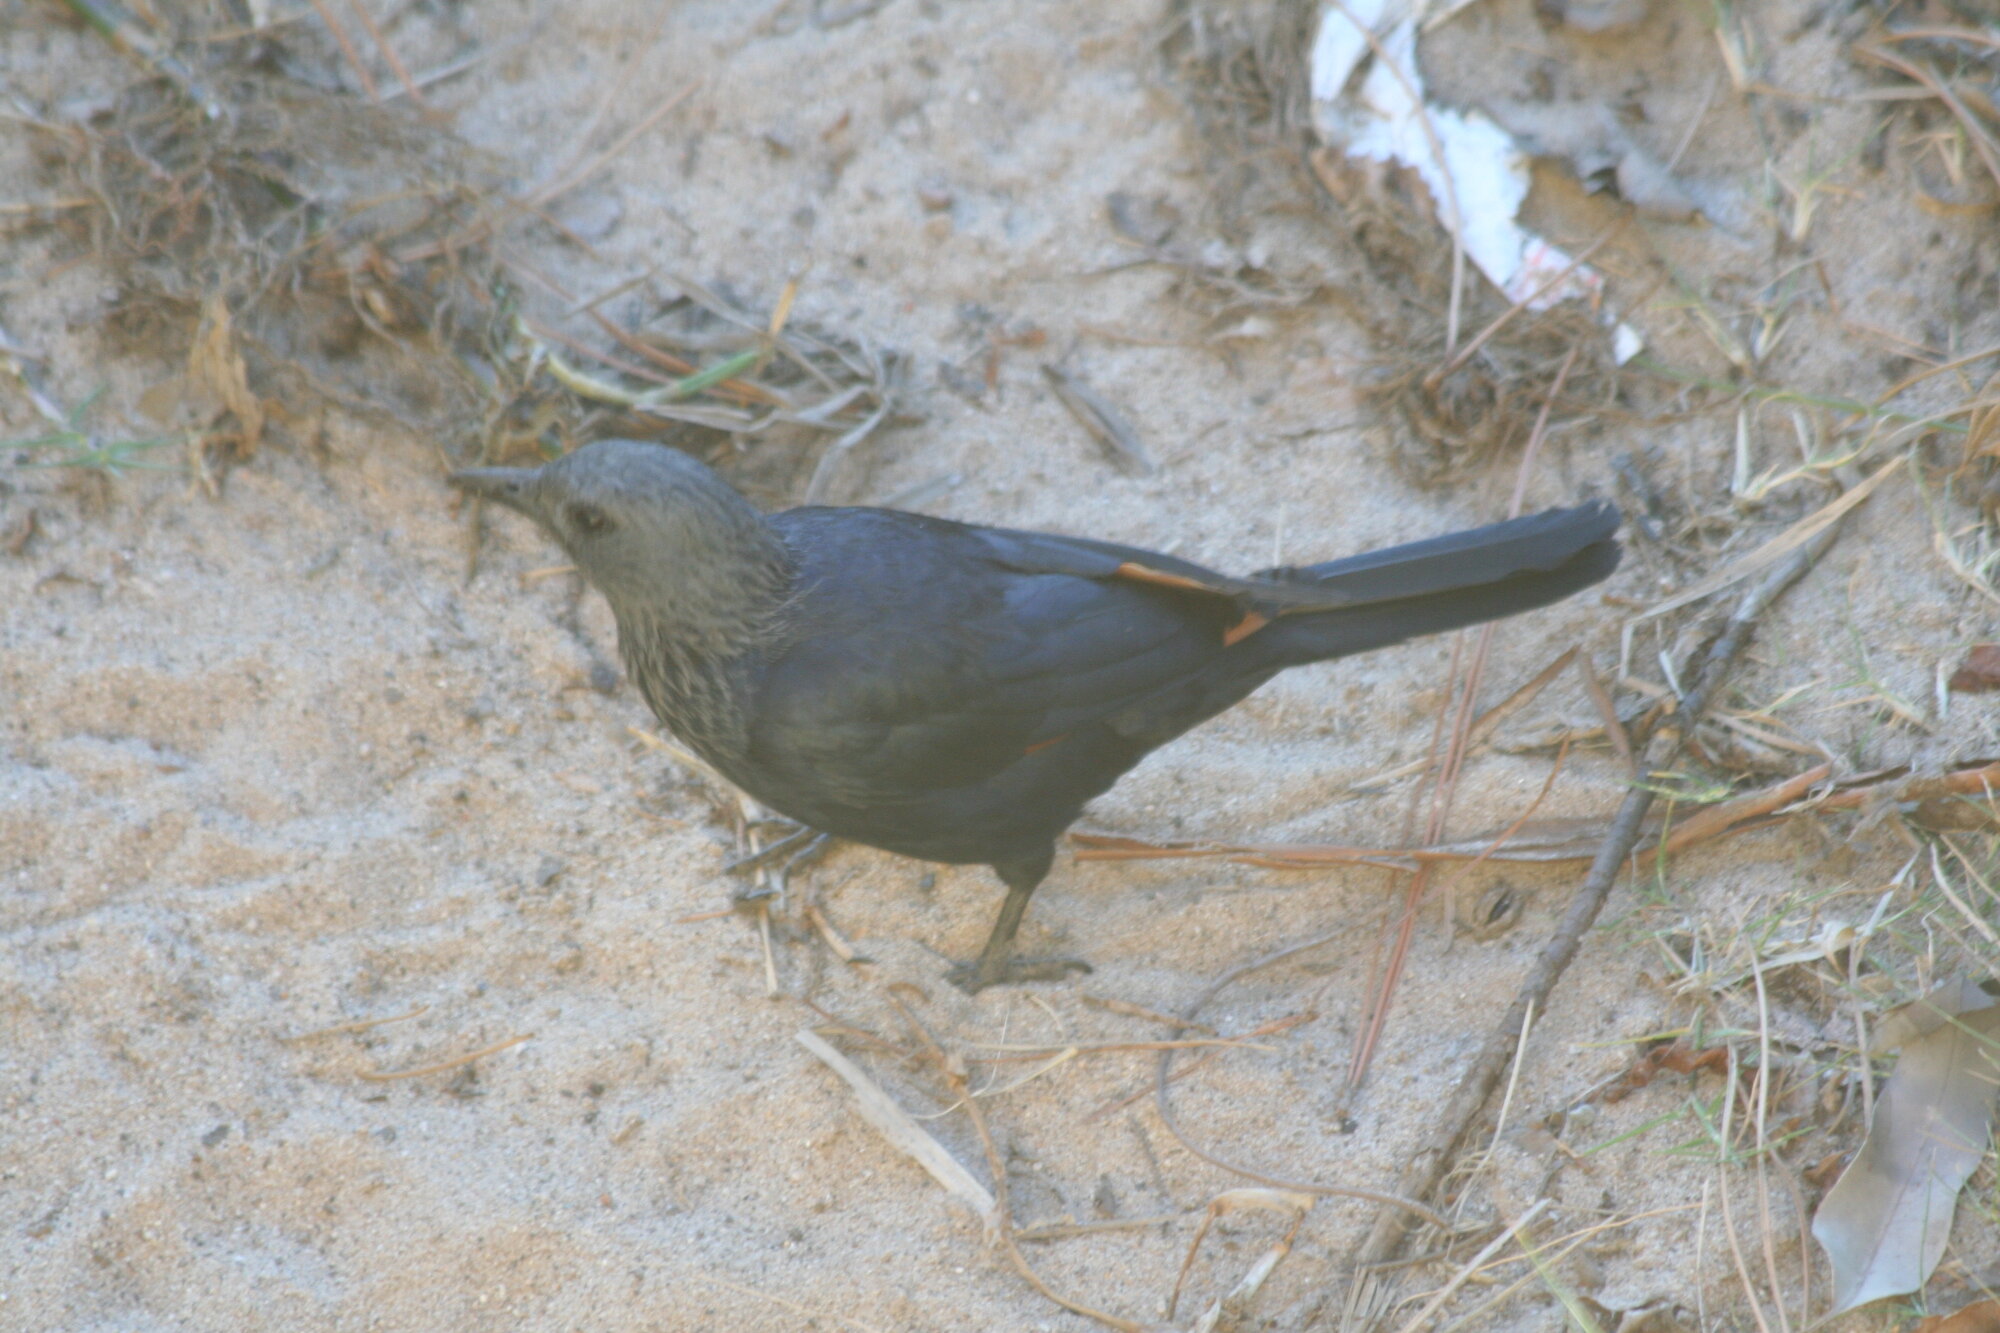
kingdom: Animalia
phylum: Chordata
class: Aves
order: Passeriformes
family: Sturnidae
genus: Onychognathus
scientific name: Onychognathus morio
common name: Red-winged starling
